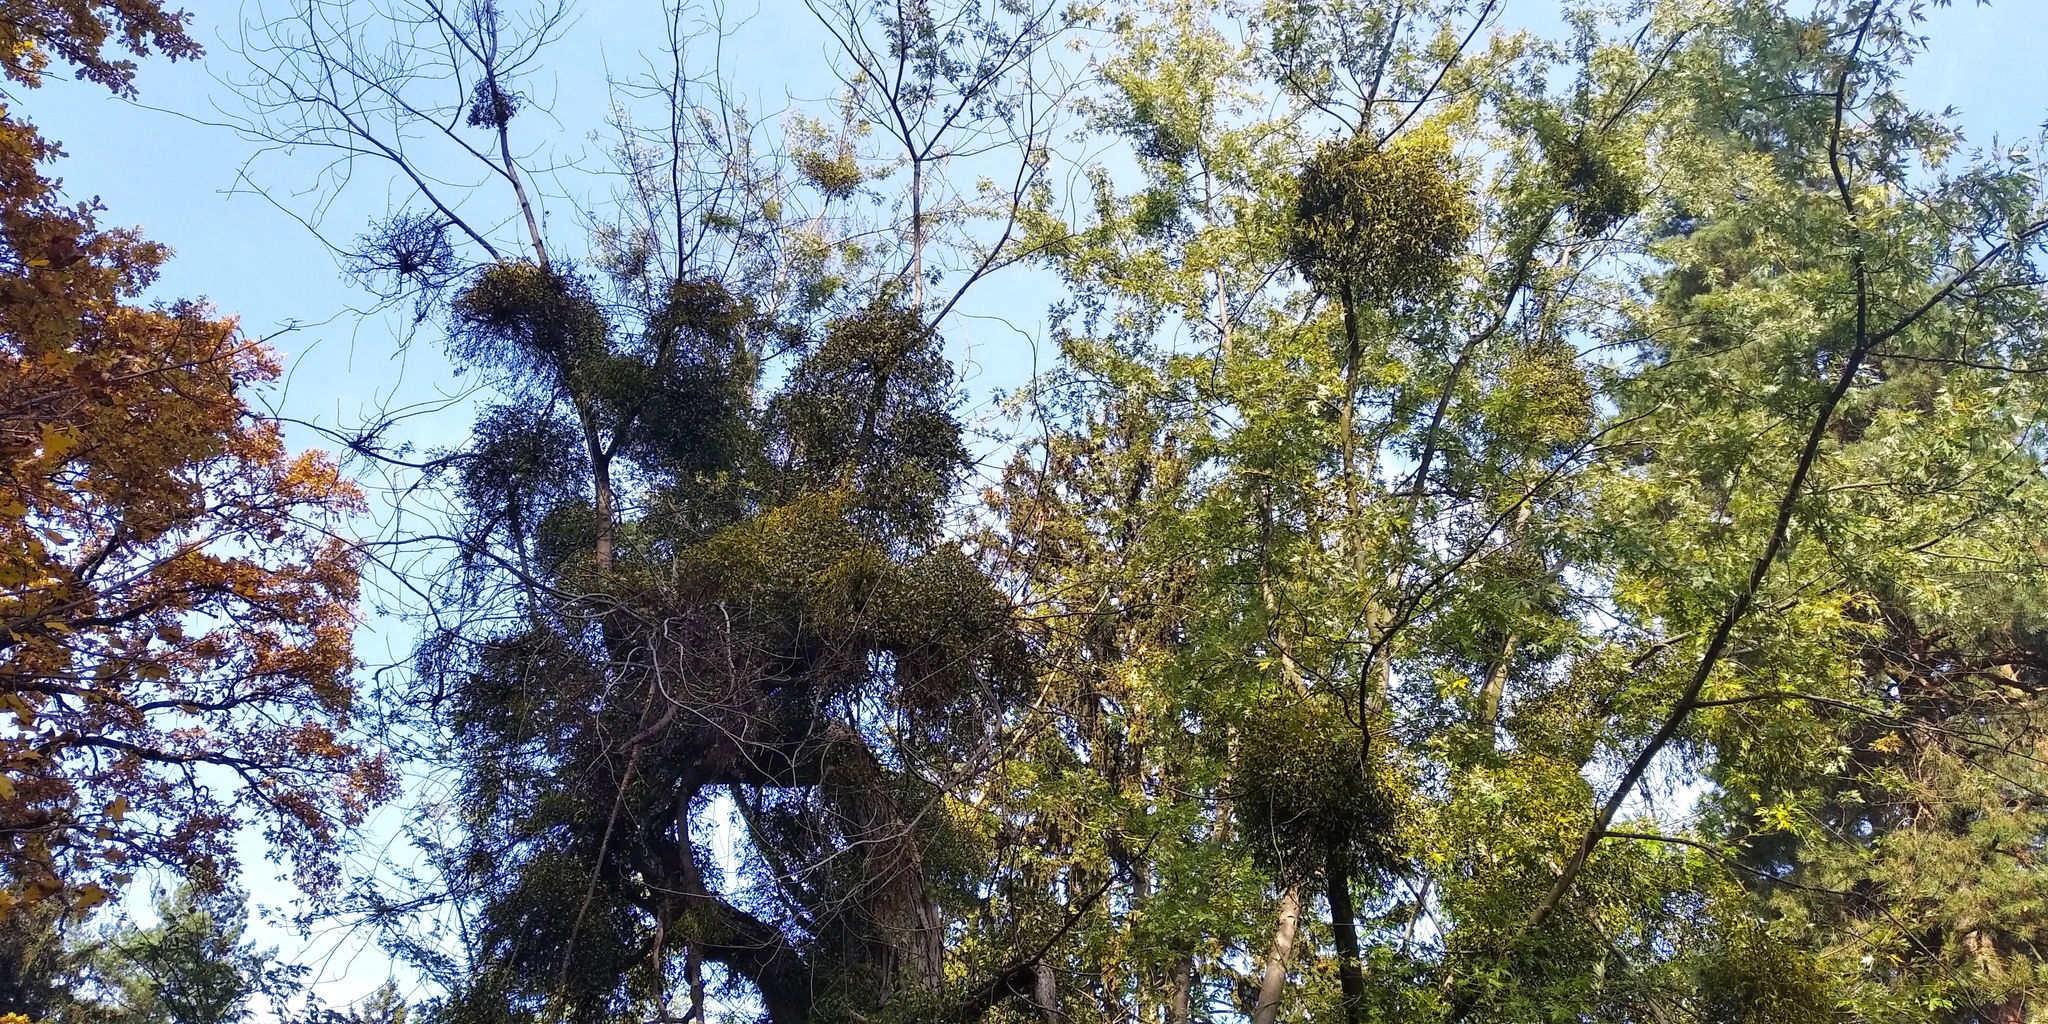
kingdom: Plantae
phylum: Tracheophyta
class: Magnoliopsida
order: Santalales
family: Viscaceae
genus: Viscum
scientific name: Viscum album
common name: Mistletoe
